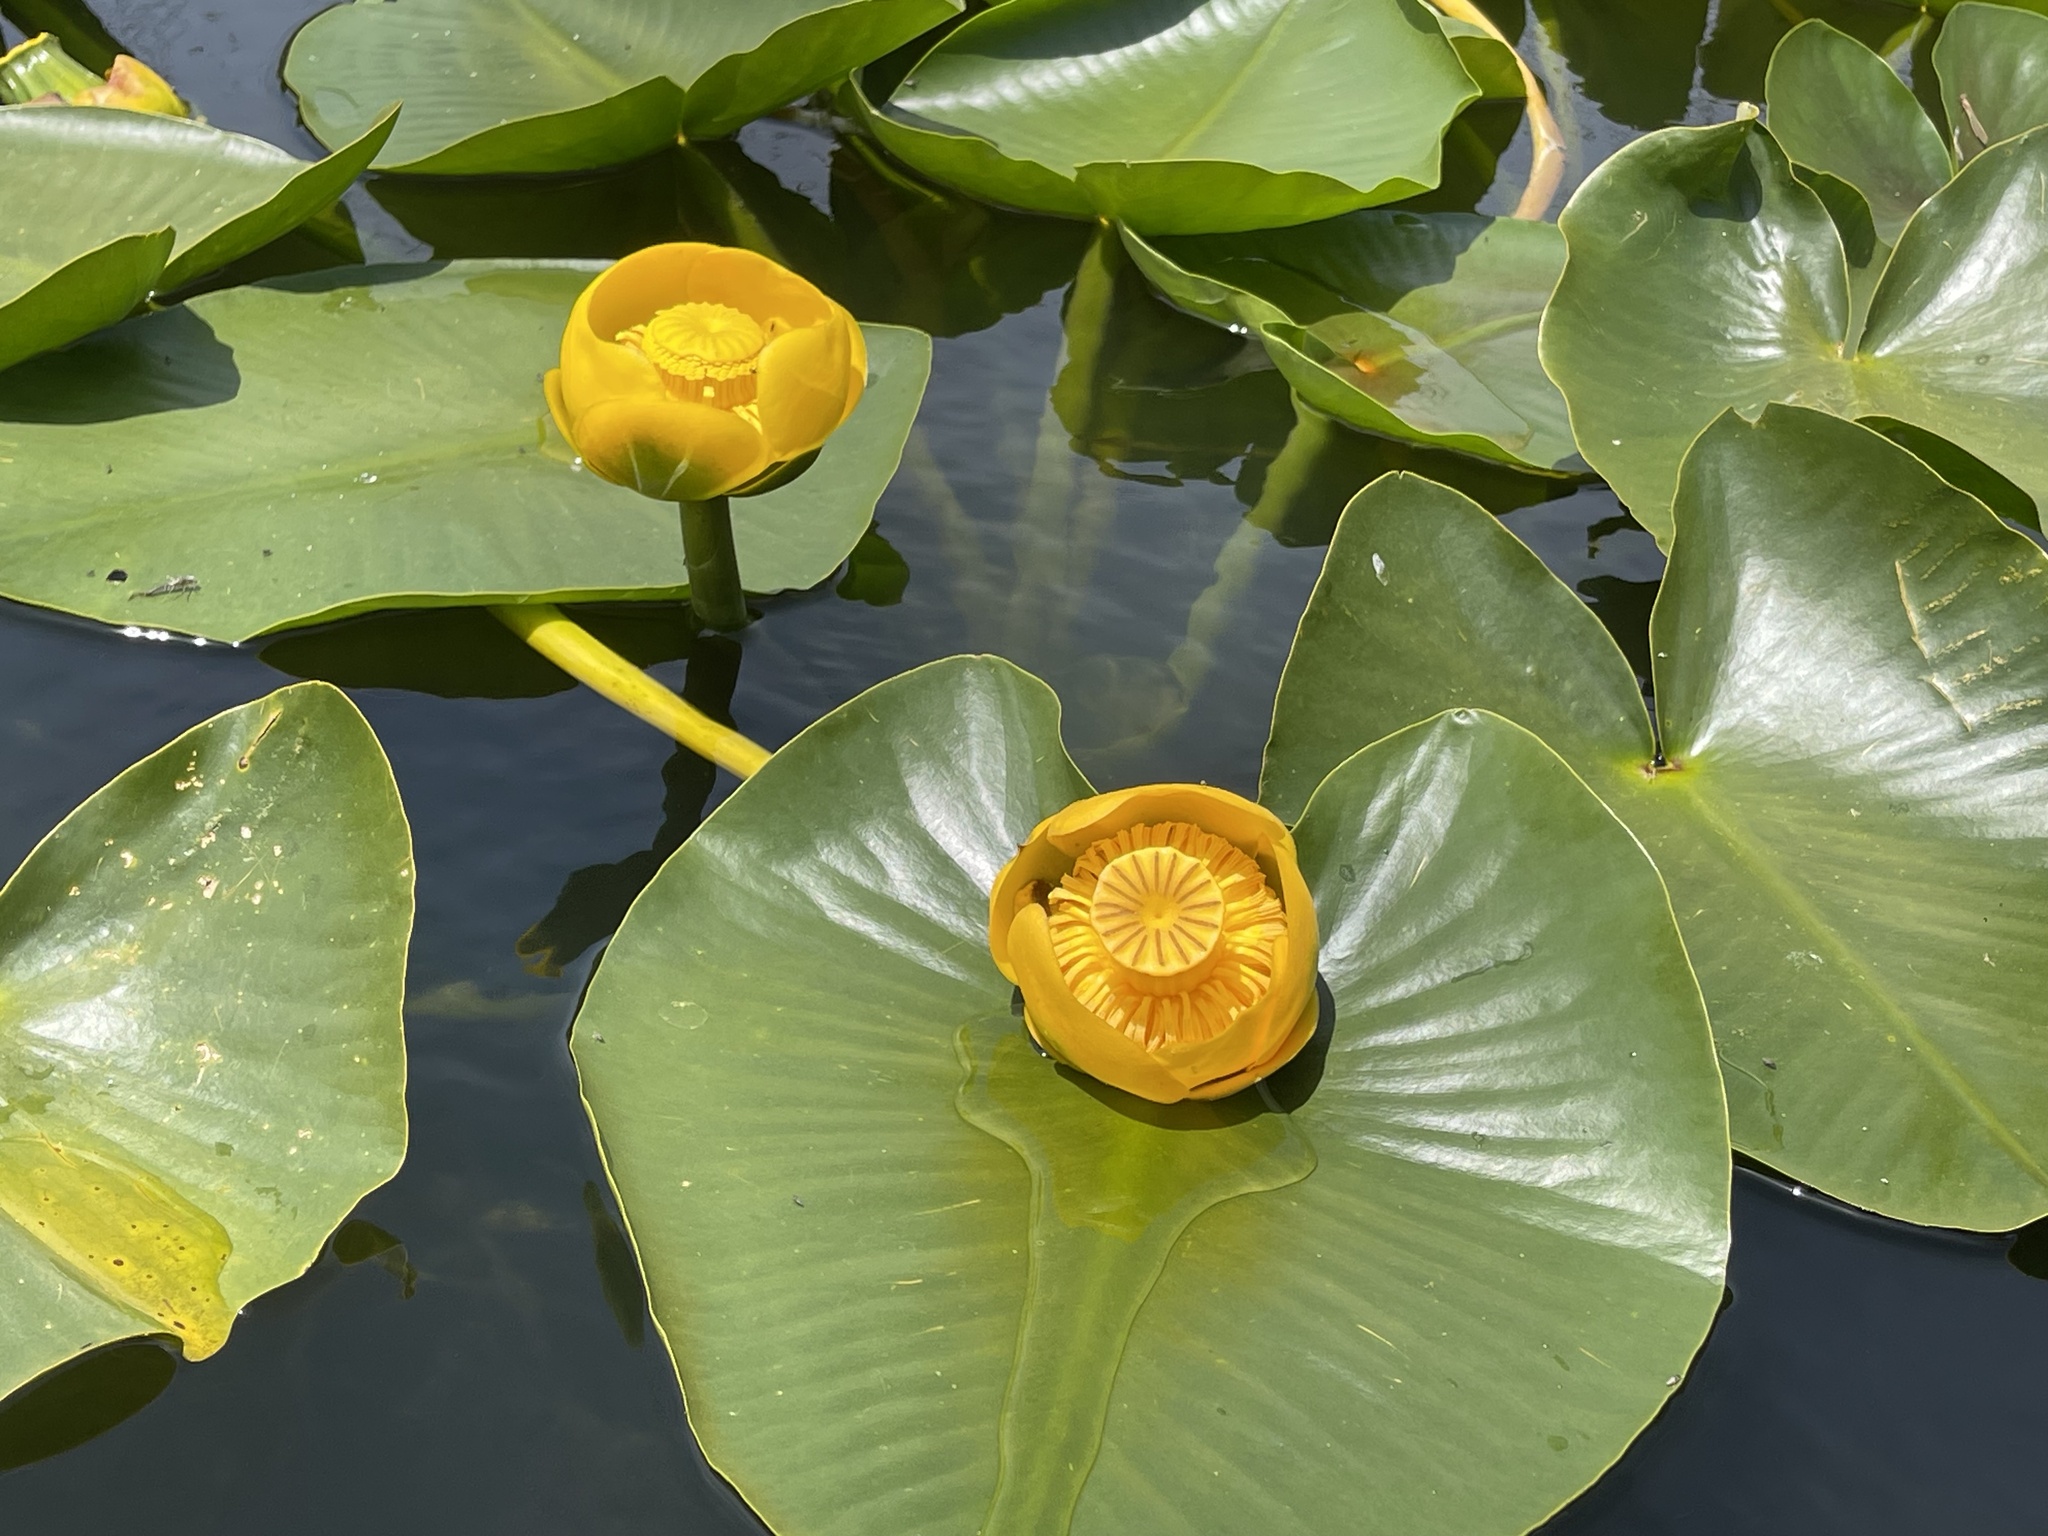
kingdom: Plantae
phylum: Tracheophyta
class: Magnoliopsida
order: Nymphaeales
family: Nymphaeaceae
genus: Nuphar
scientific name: Nuphar polysepala
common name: Rocky mountain cow-lily
